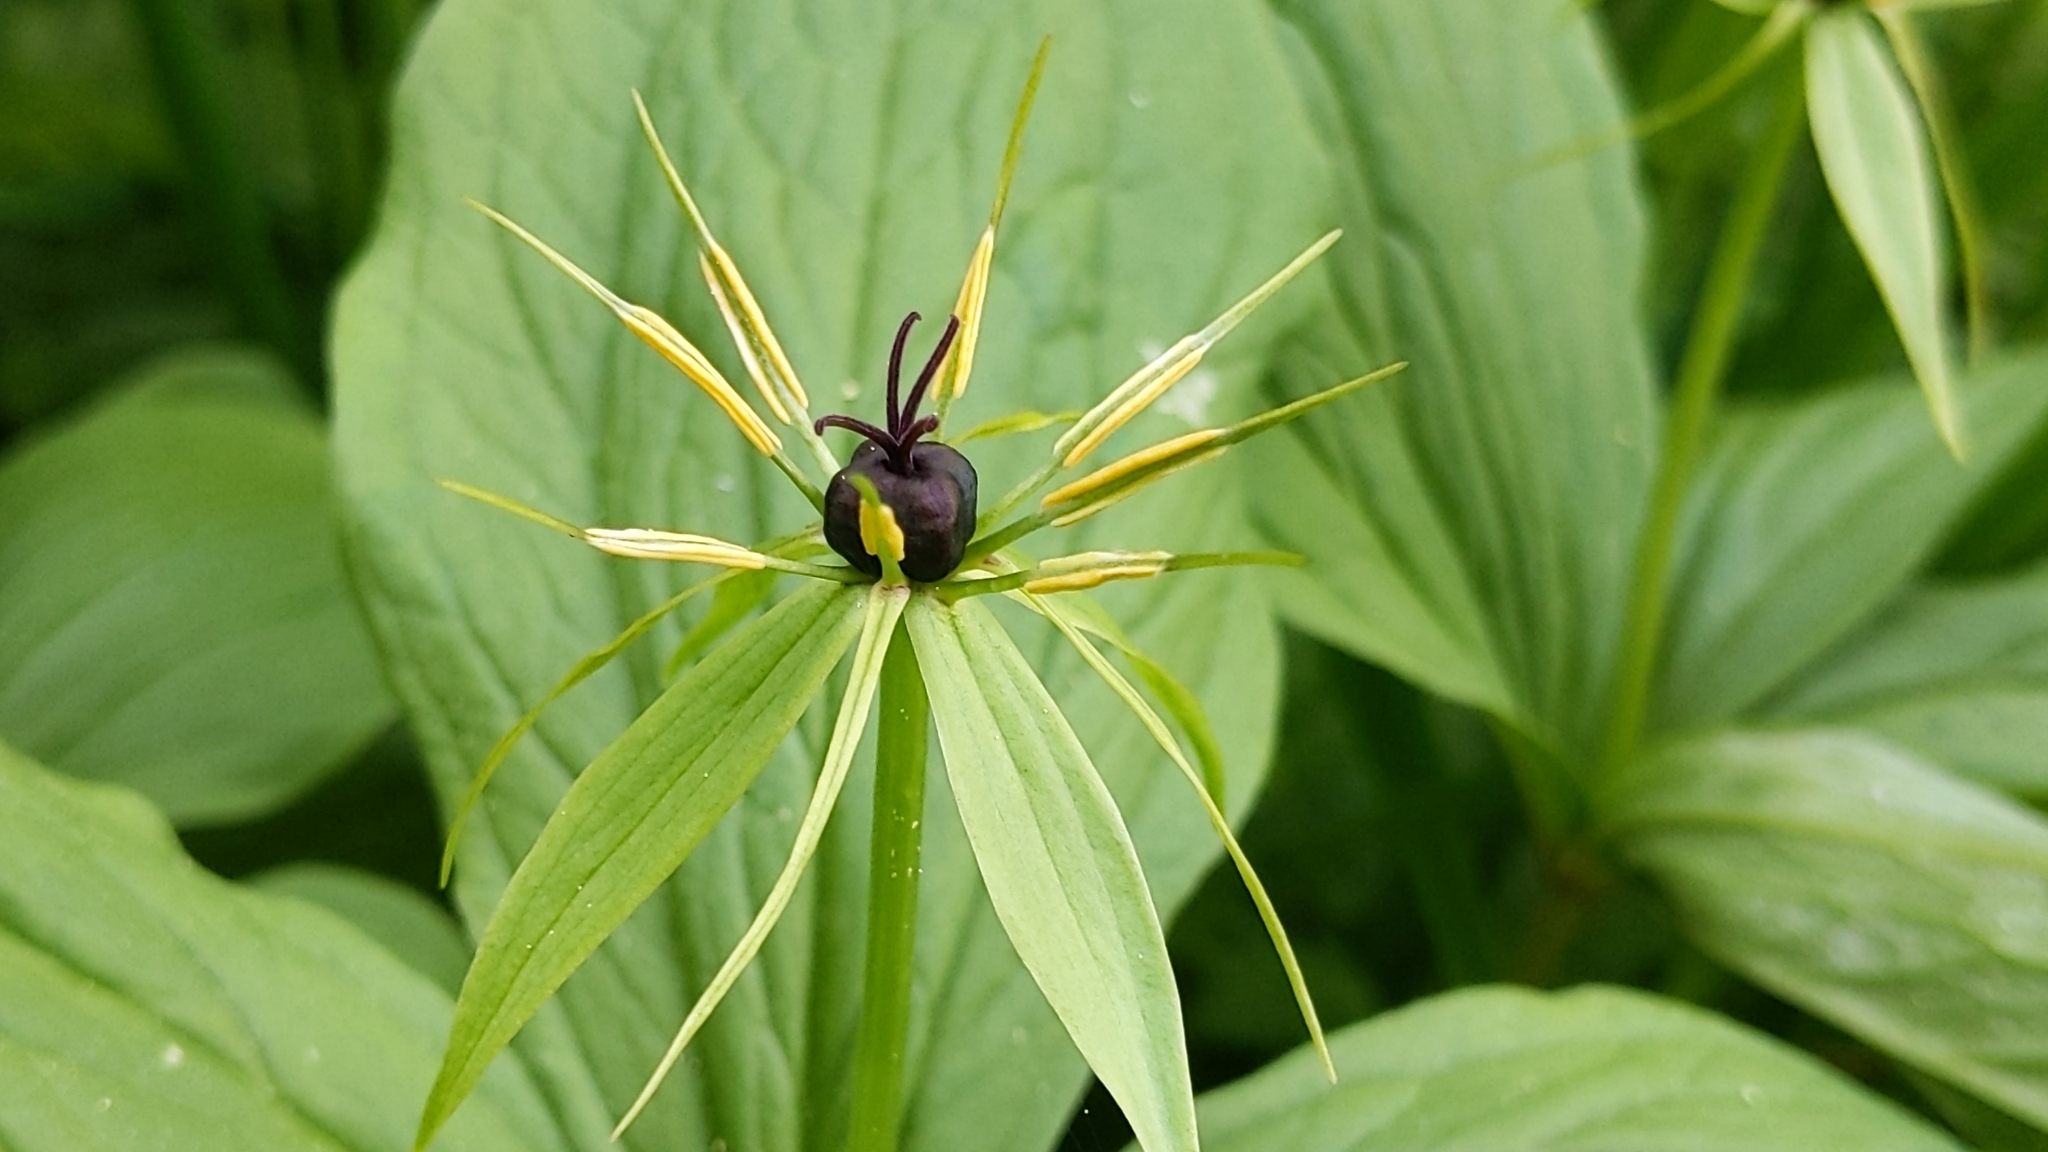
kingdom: Plantae
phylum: Tracheophyta
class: Liliopsida
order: Liliales
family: Melanthiaceae
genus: Paris
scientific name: Paris quadrifolia
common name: Herb-paris
